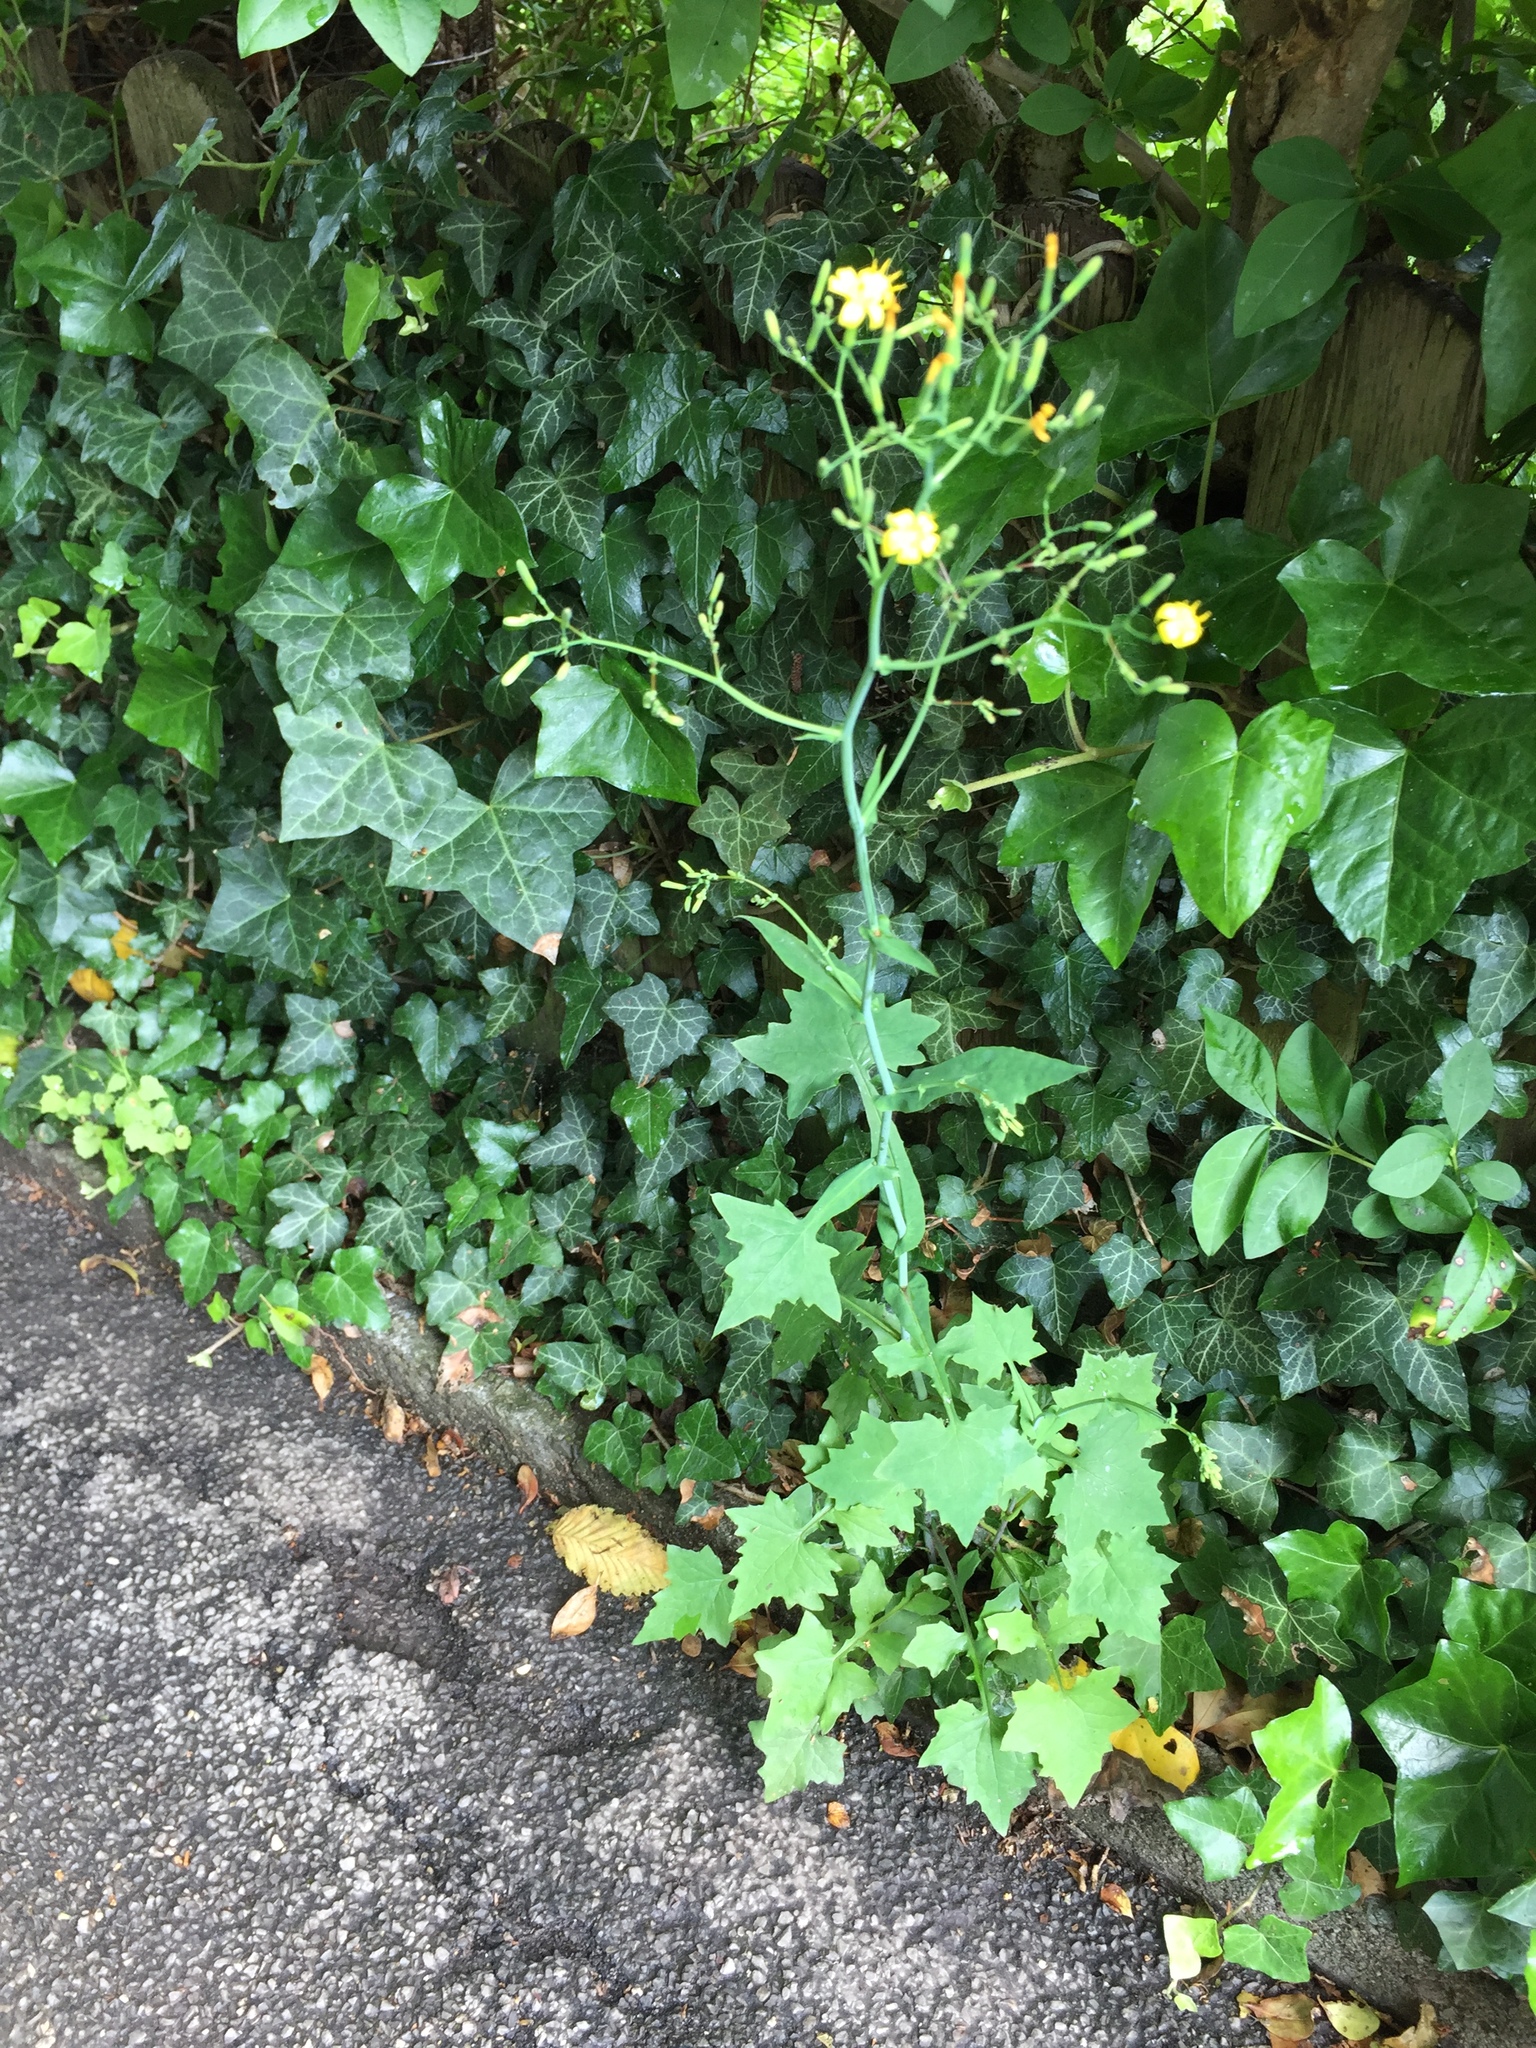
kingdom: Plantae
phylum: Tracheophyta
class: Magnoliopsida
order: Asterales
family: Asteraceae
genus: Mycelis
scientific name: Mycelis muralis
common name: Wall lettuce
